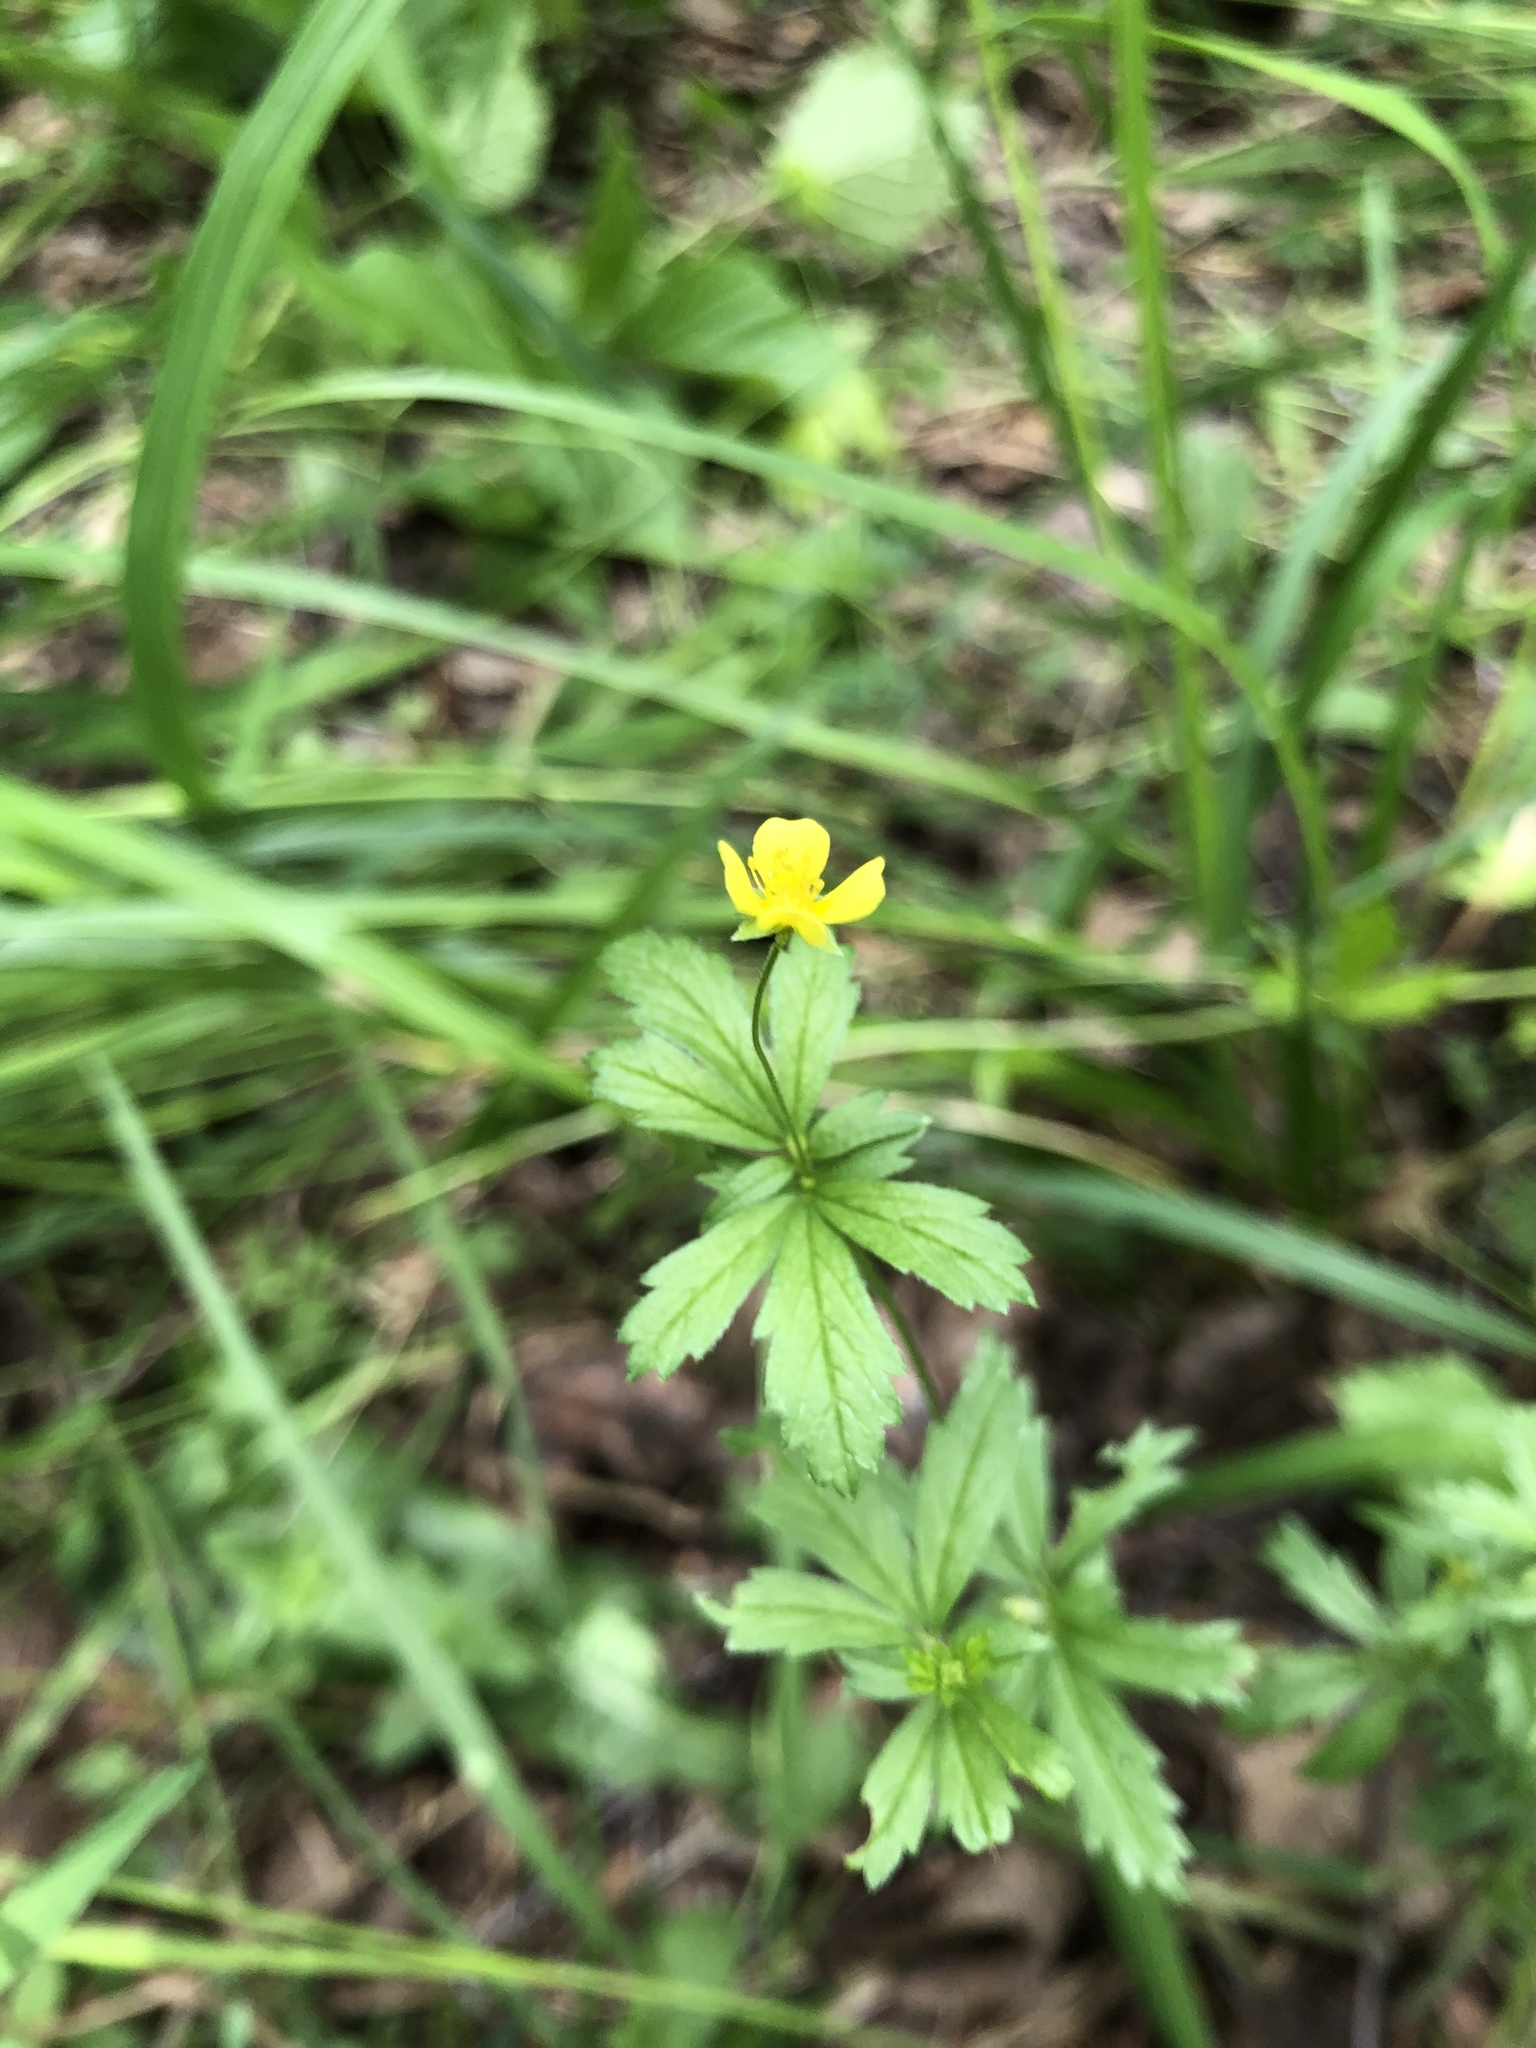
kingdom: Plantae
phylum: Tracheophyta
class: Magnoliopsida
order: Rosales
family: Rosaceae
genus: Potentilla
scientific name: Potentilla erecta
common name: Tormentil
